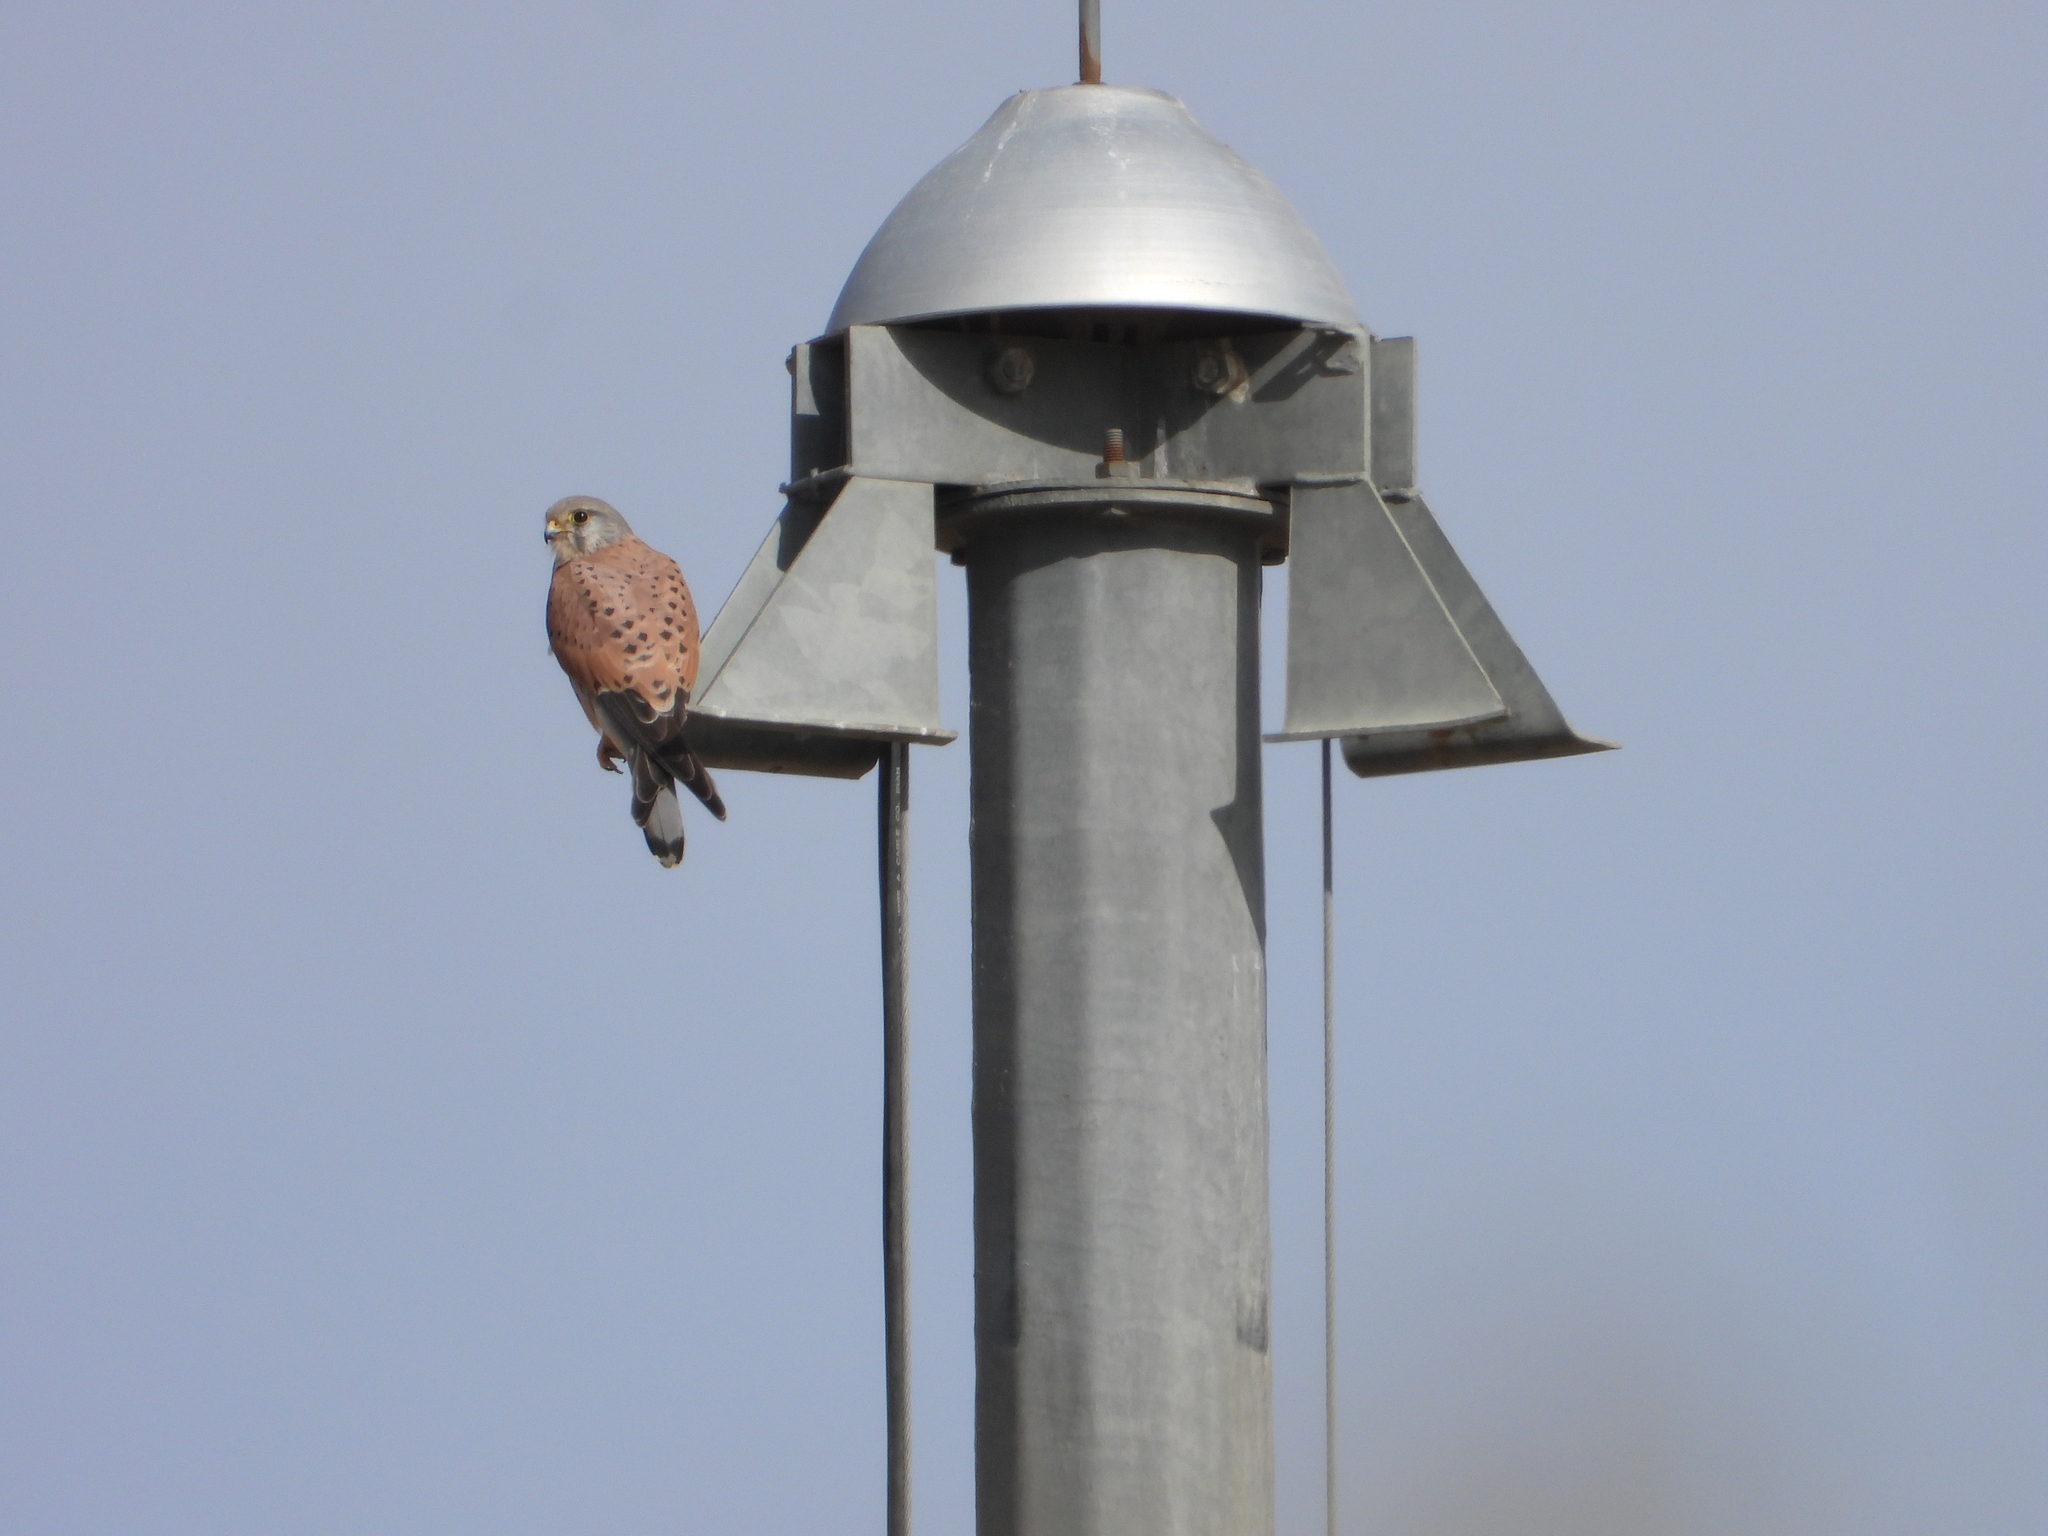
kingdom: Animalia
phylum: Chordata
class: Aves
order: Falconiformes
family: Falconidae
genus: Falco
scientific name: Falco tinnunculus
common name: Common kestrel
